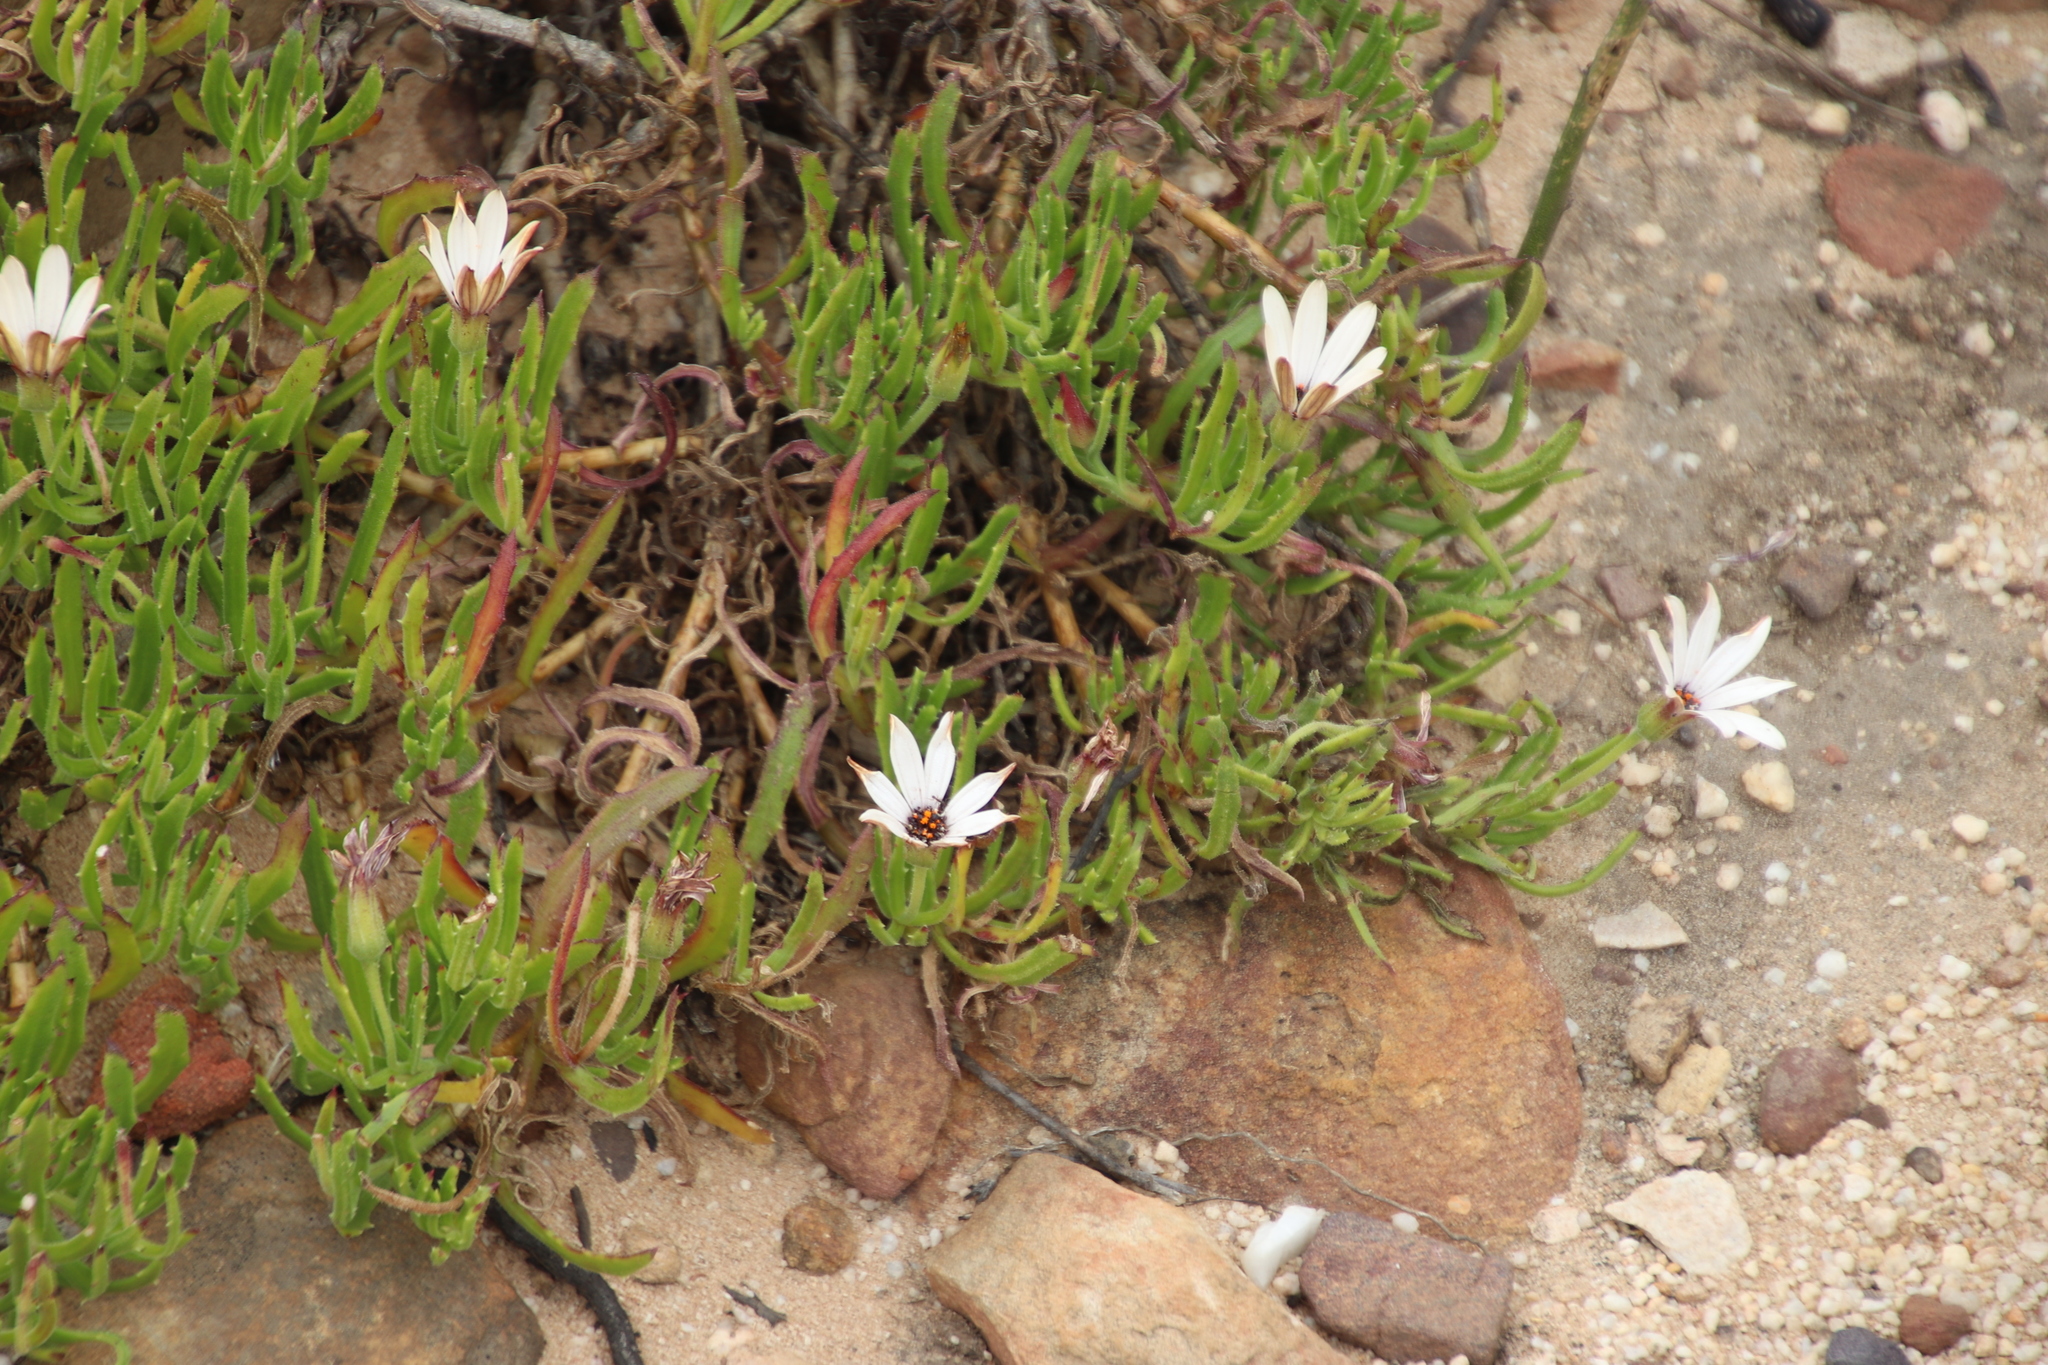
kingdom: Plantae
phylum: Tracheophyta
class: Magnoliopsida
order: Asterales
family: Asteraceae
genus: Dimorphotheca
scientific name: Dimorphotheca acutifolia
